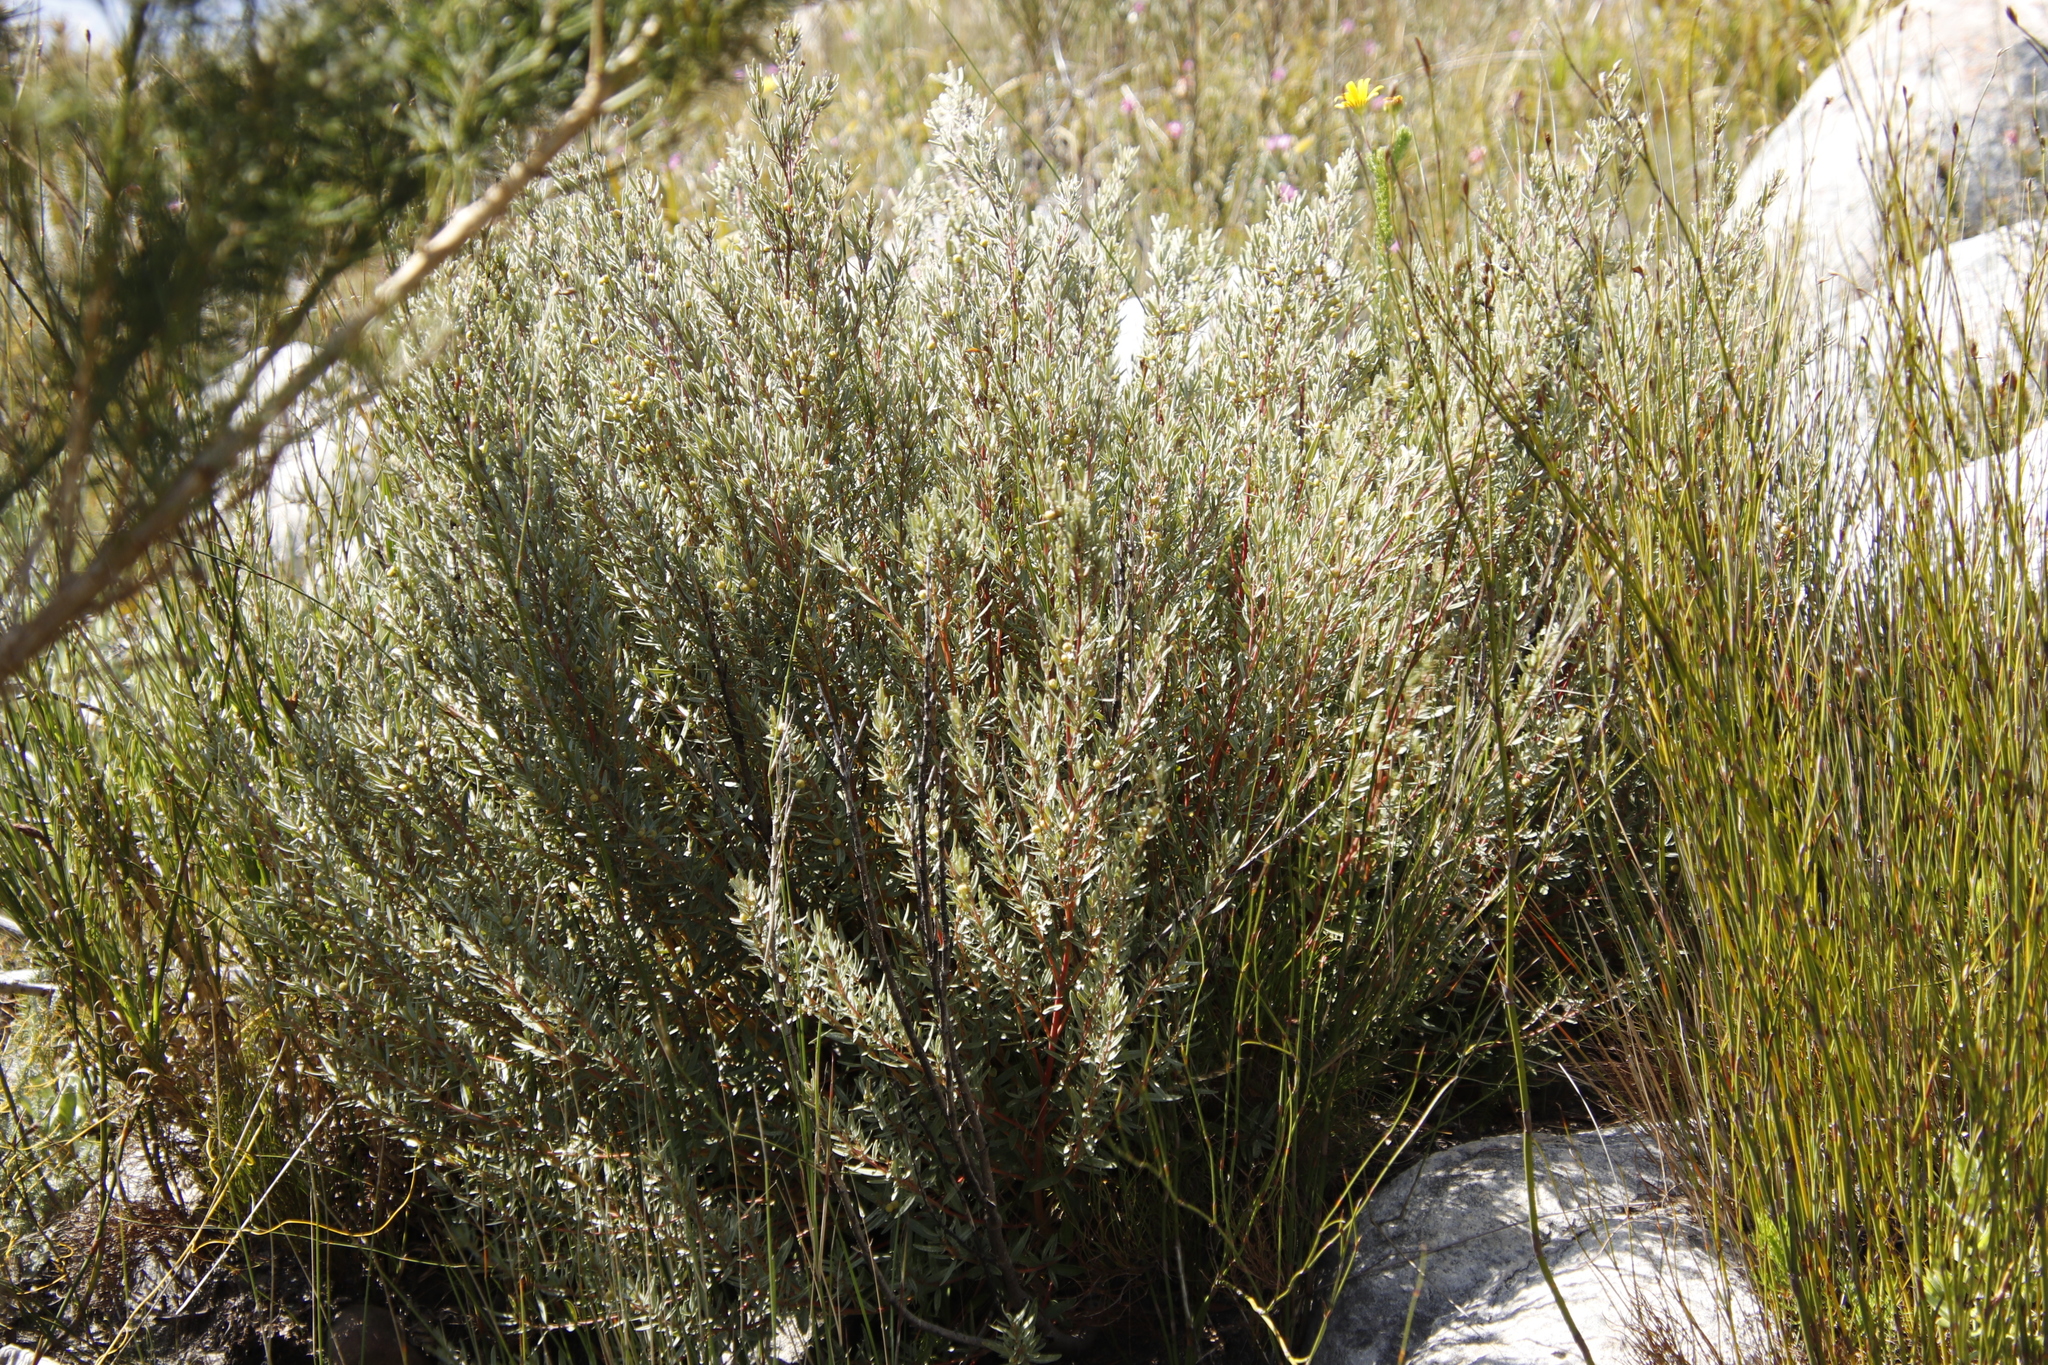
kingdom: Plantae
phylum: Tracheophyta
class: Magnoliopsida
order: Cornales
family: Grubbiaceae
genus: Grubbia
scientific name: Grubbia tomentosa
